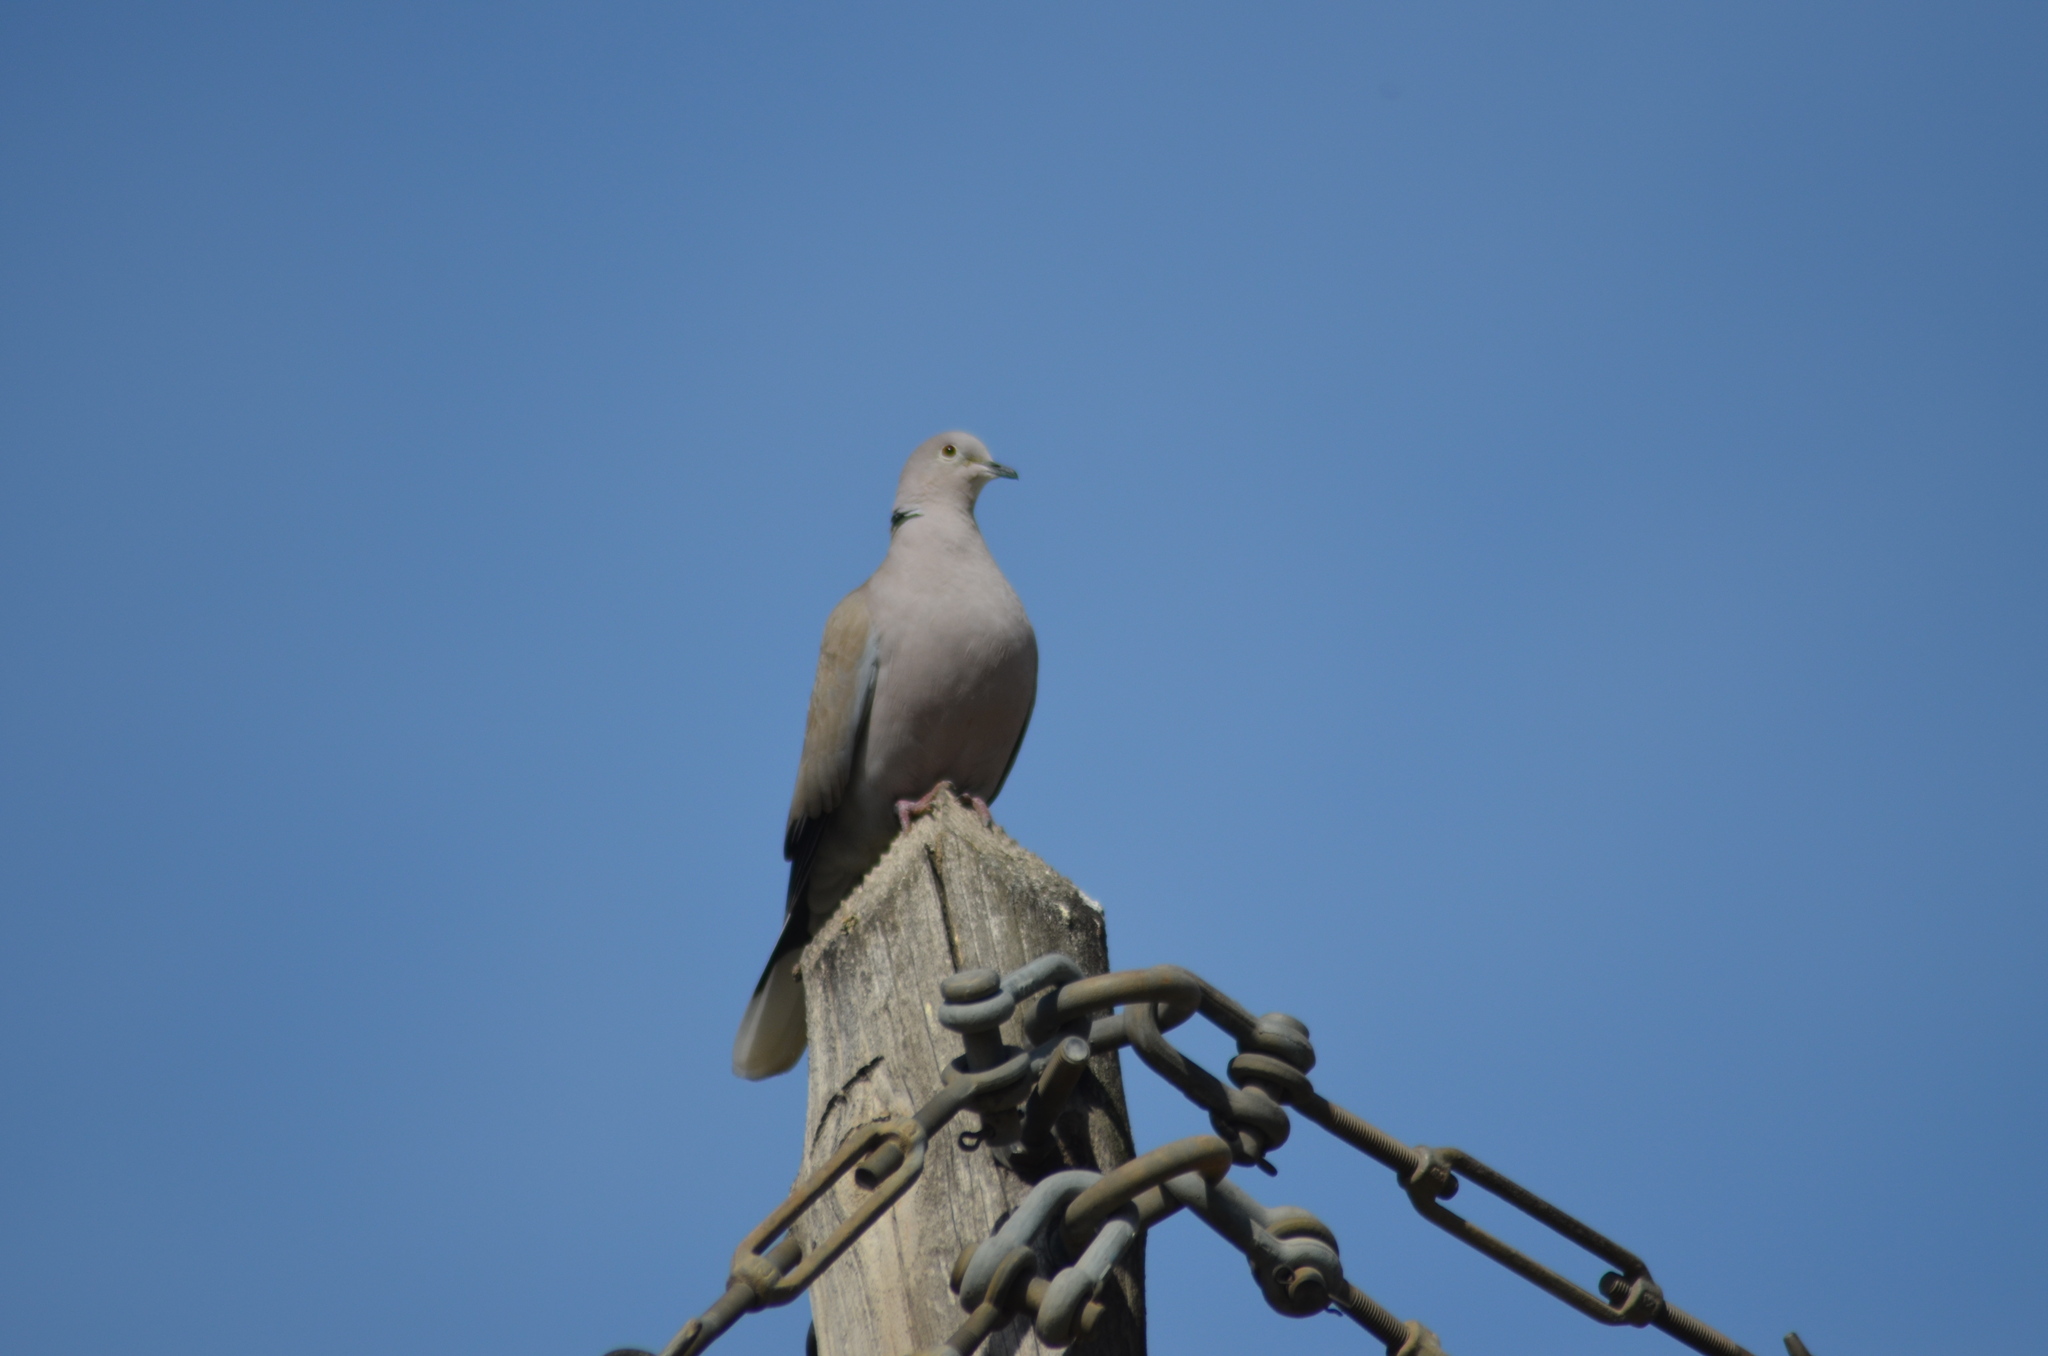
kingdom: Animalia
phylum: Chordata
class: Aves
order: Columbiformes
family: Columbidae
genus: Streptopelia
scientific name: Streptopelia decaocto
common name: Eurasian collared dove
